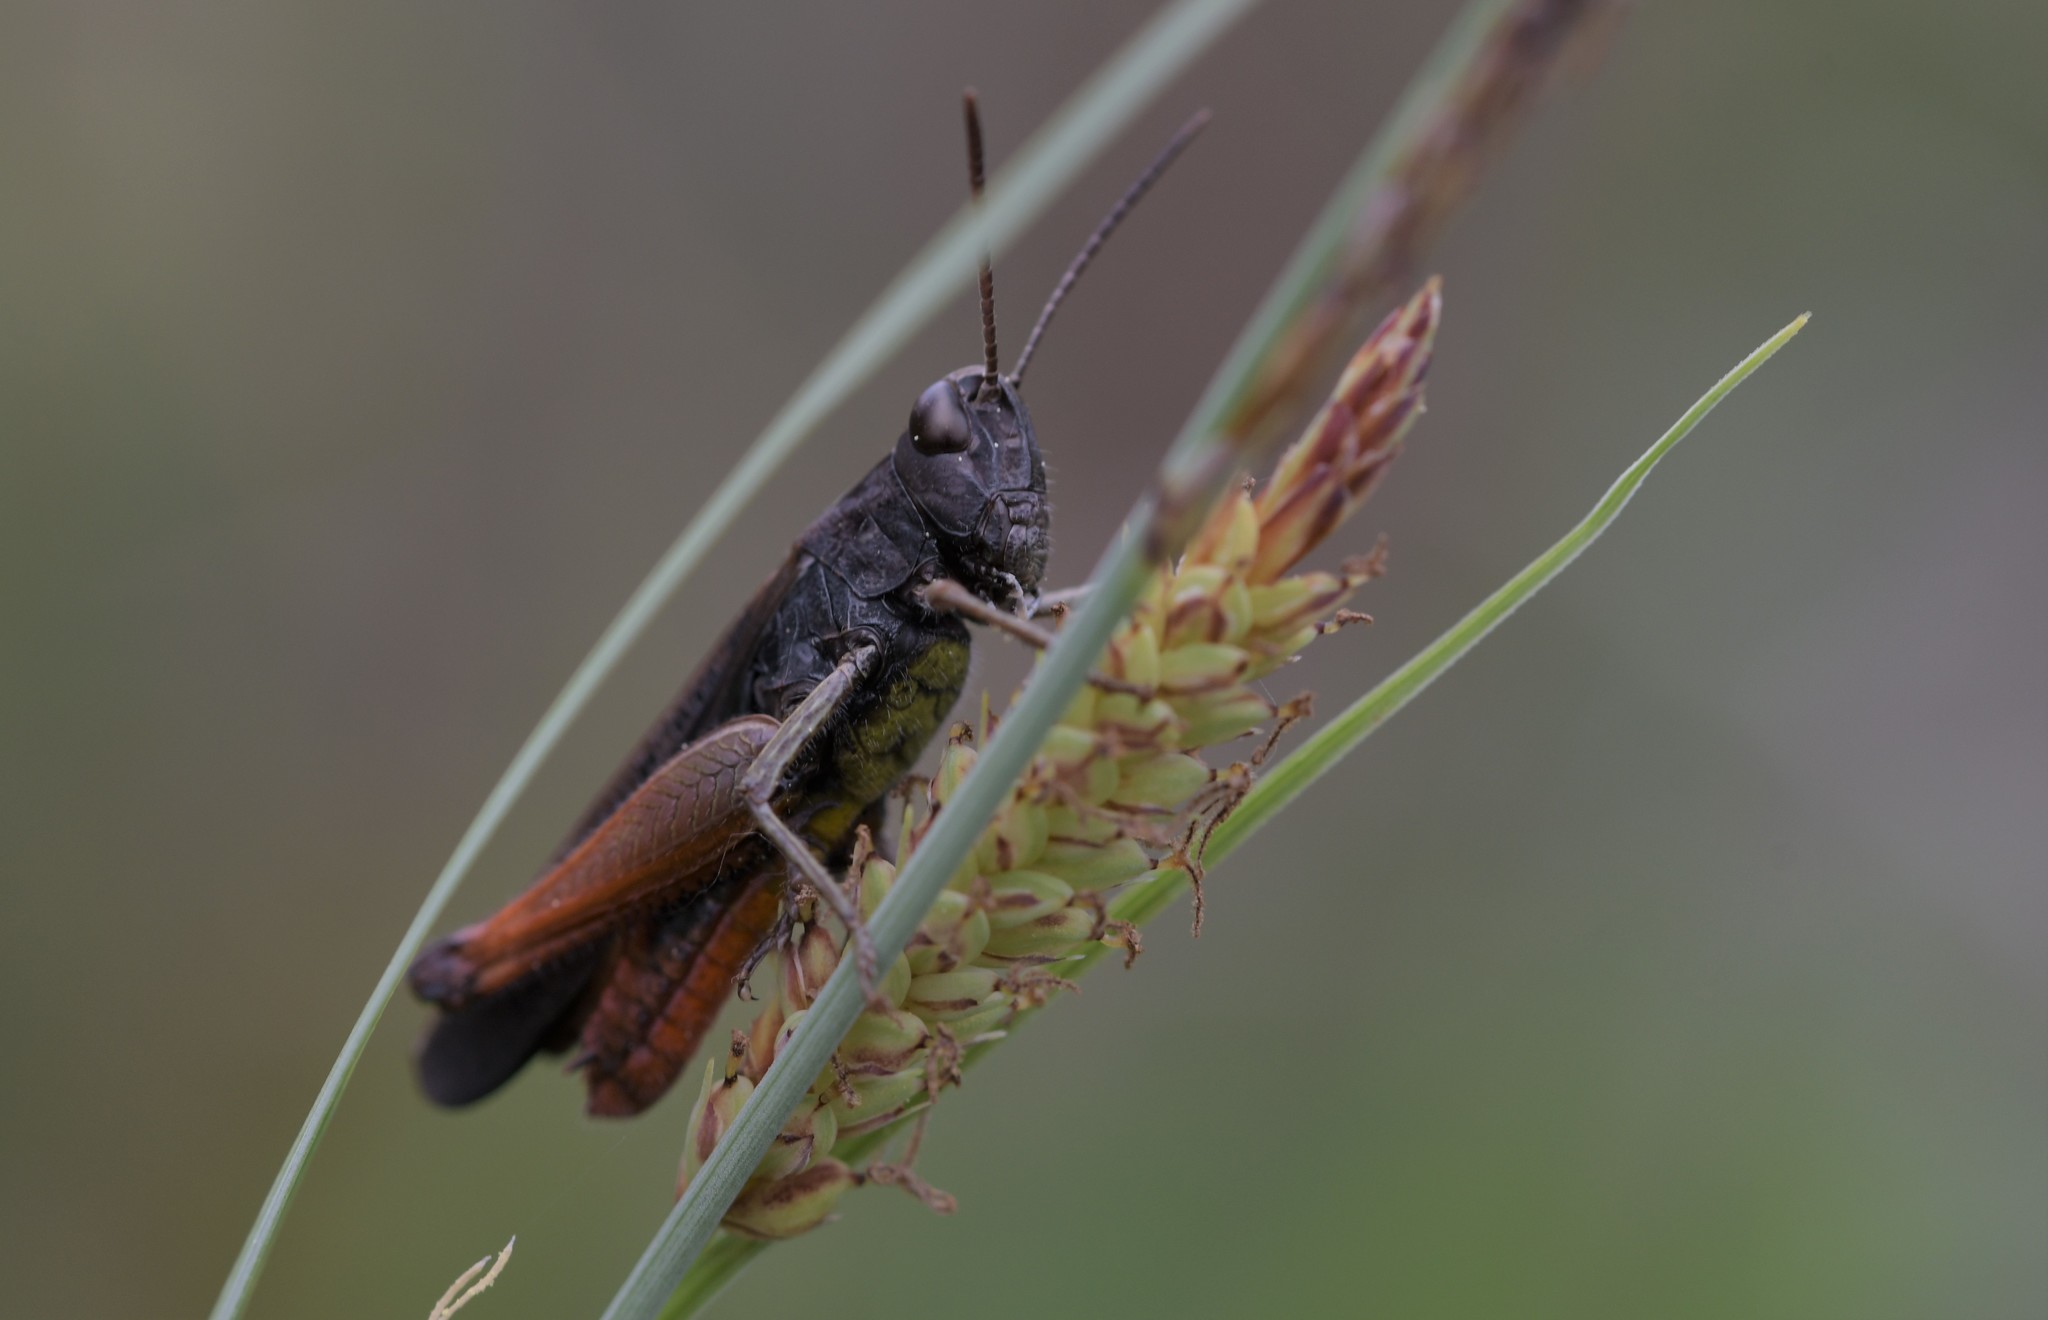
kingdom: Animalia
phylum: Arthropoda
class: Insecta
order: Orthoptera
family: Acrididae
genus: Omocestus
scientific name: Omocestus rufipes
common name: Woodland grasshopper
